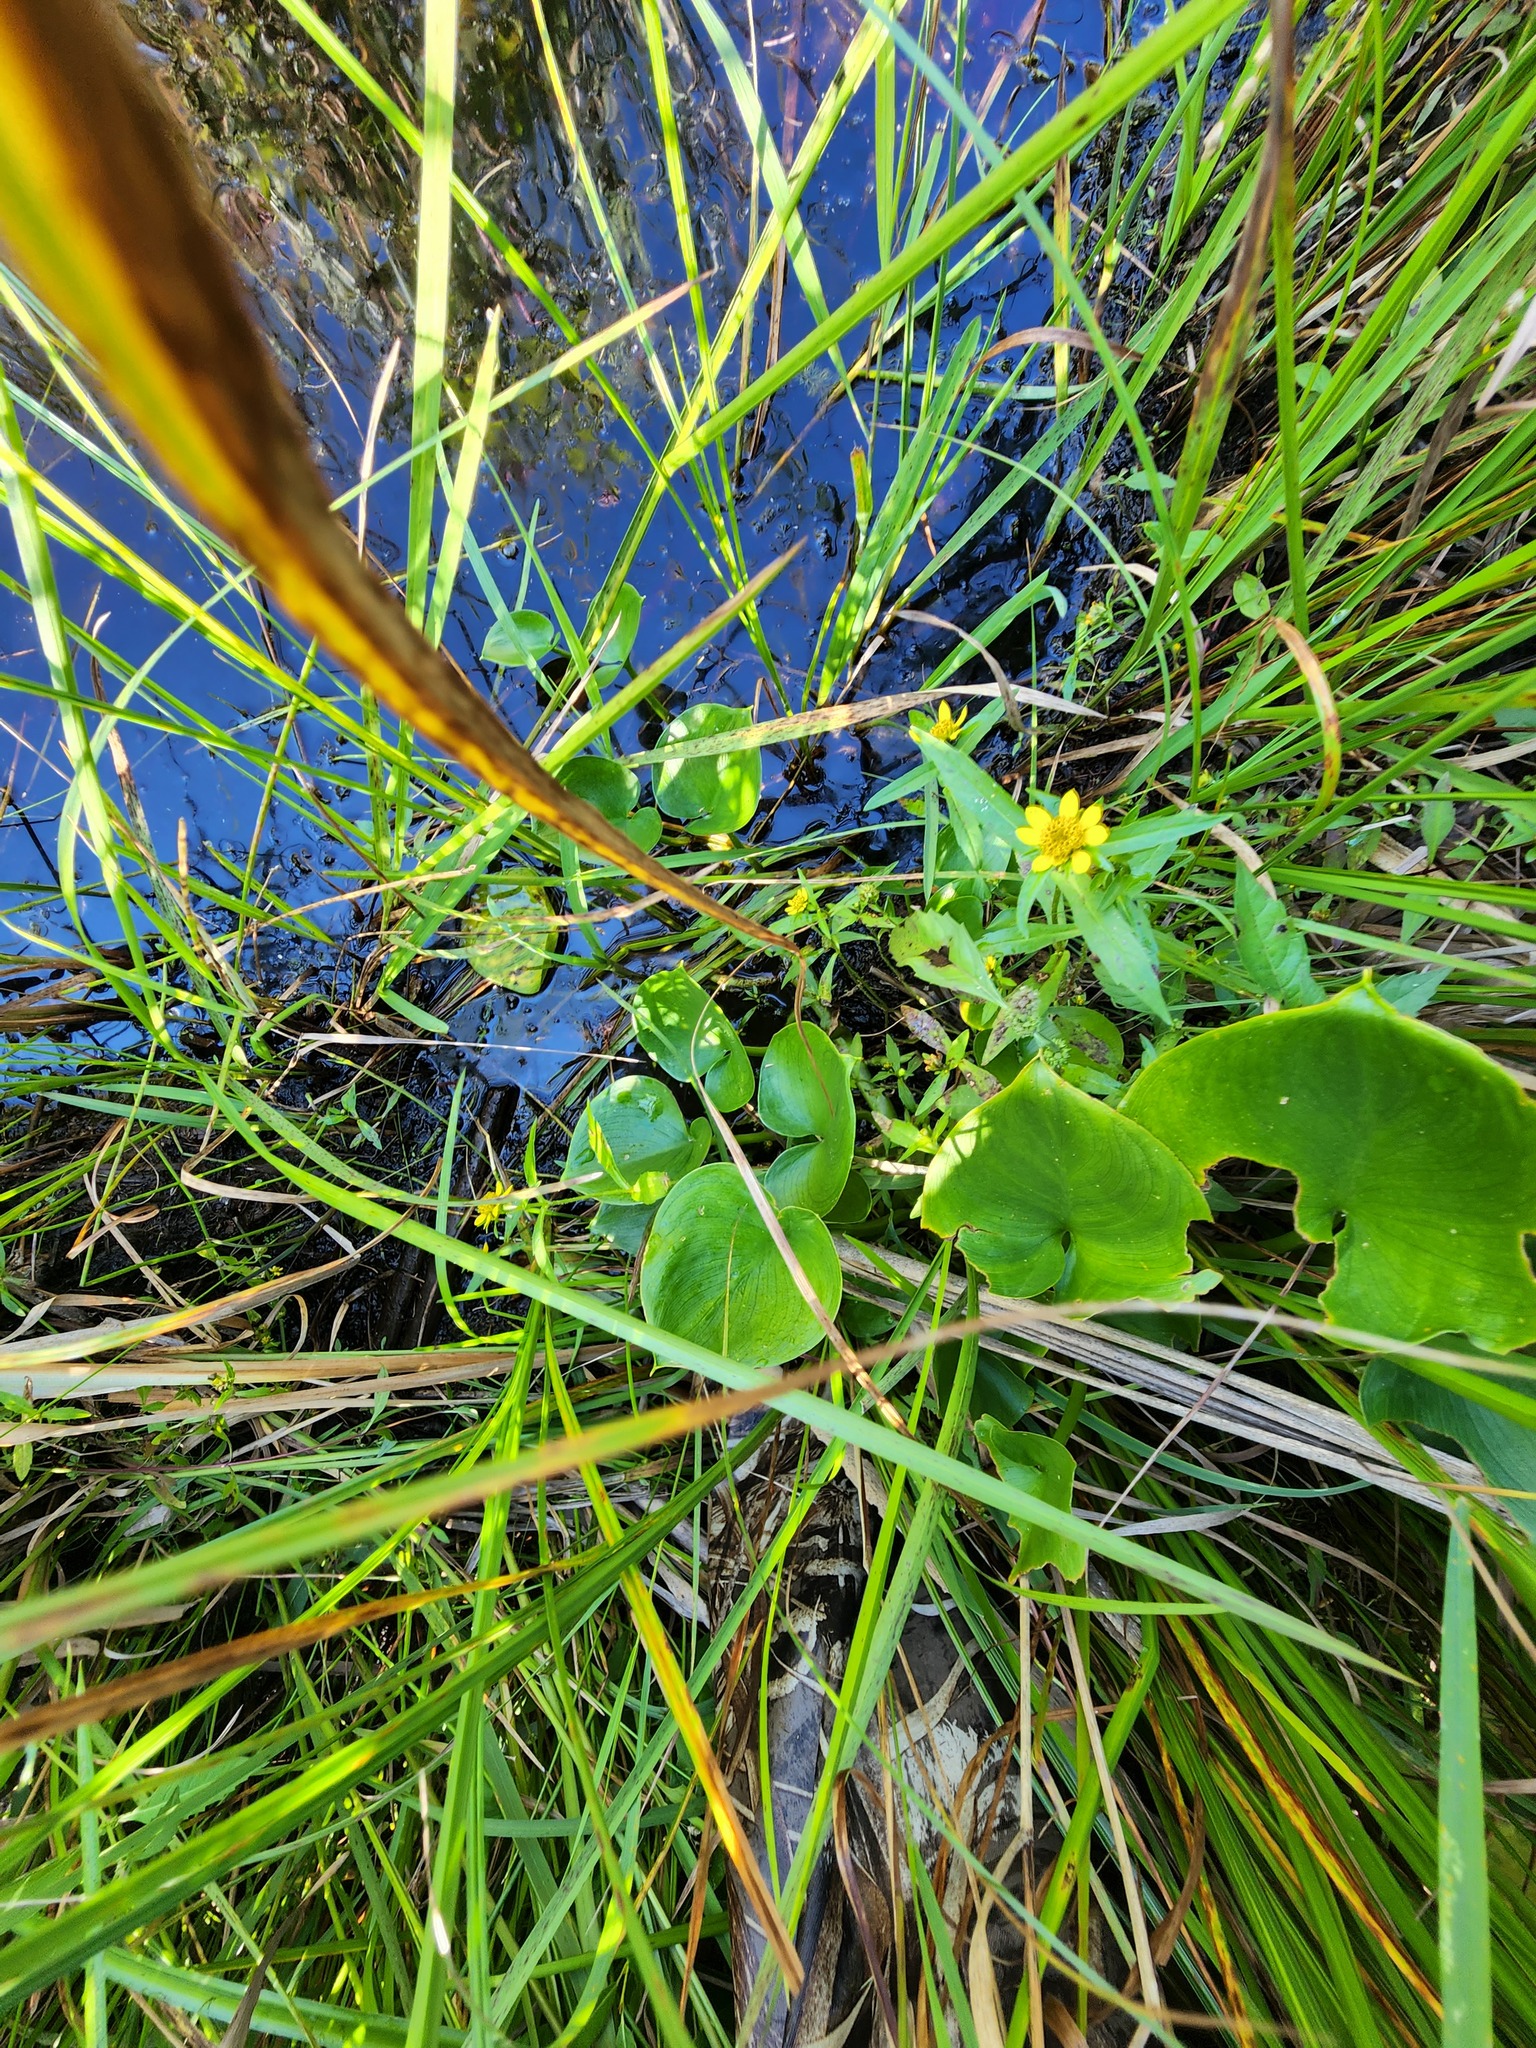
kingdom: Plantae
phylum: Tracheophyta
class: Liliopsida
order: Alismatales
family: Araceae
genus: Calla
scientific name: Calla palustris
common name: Bog arum
